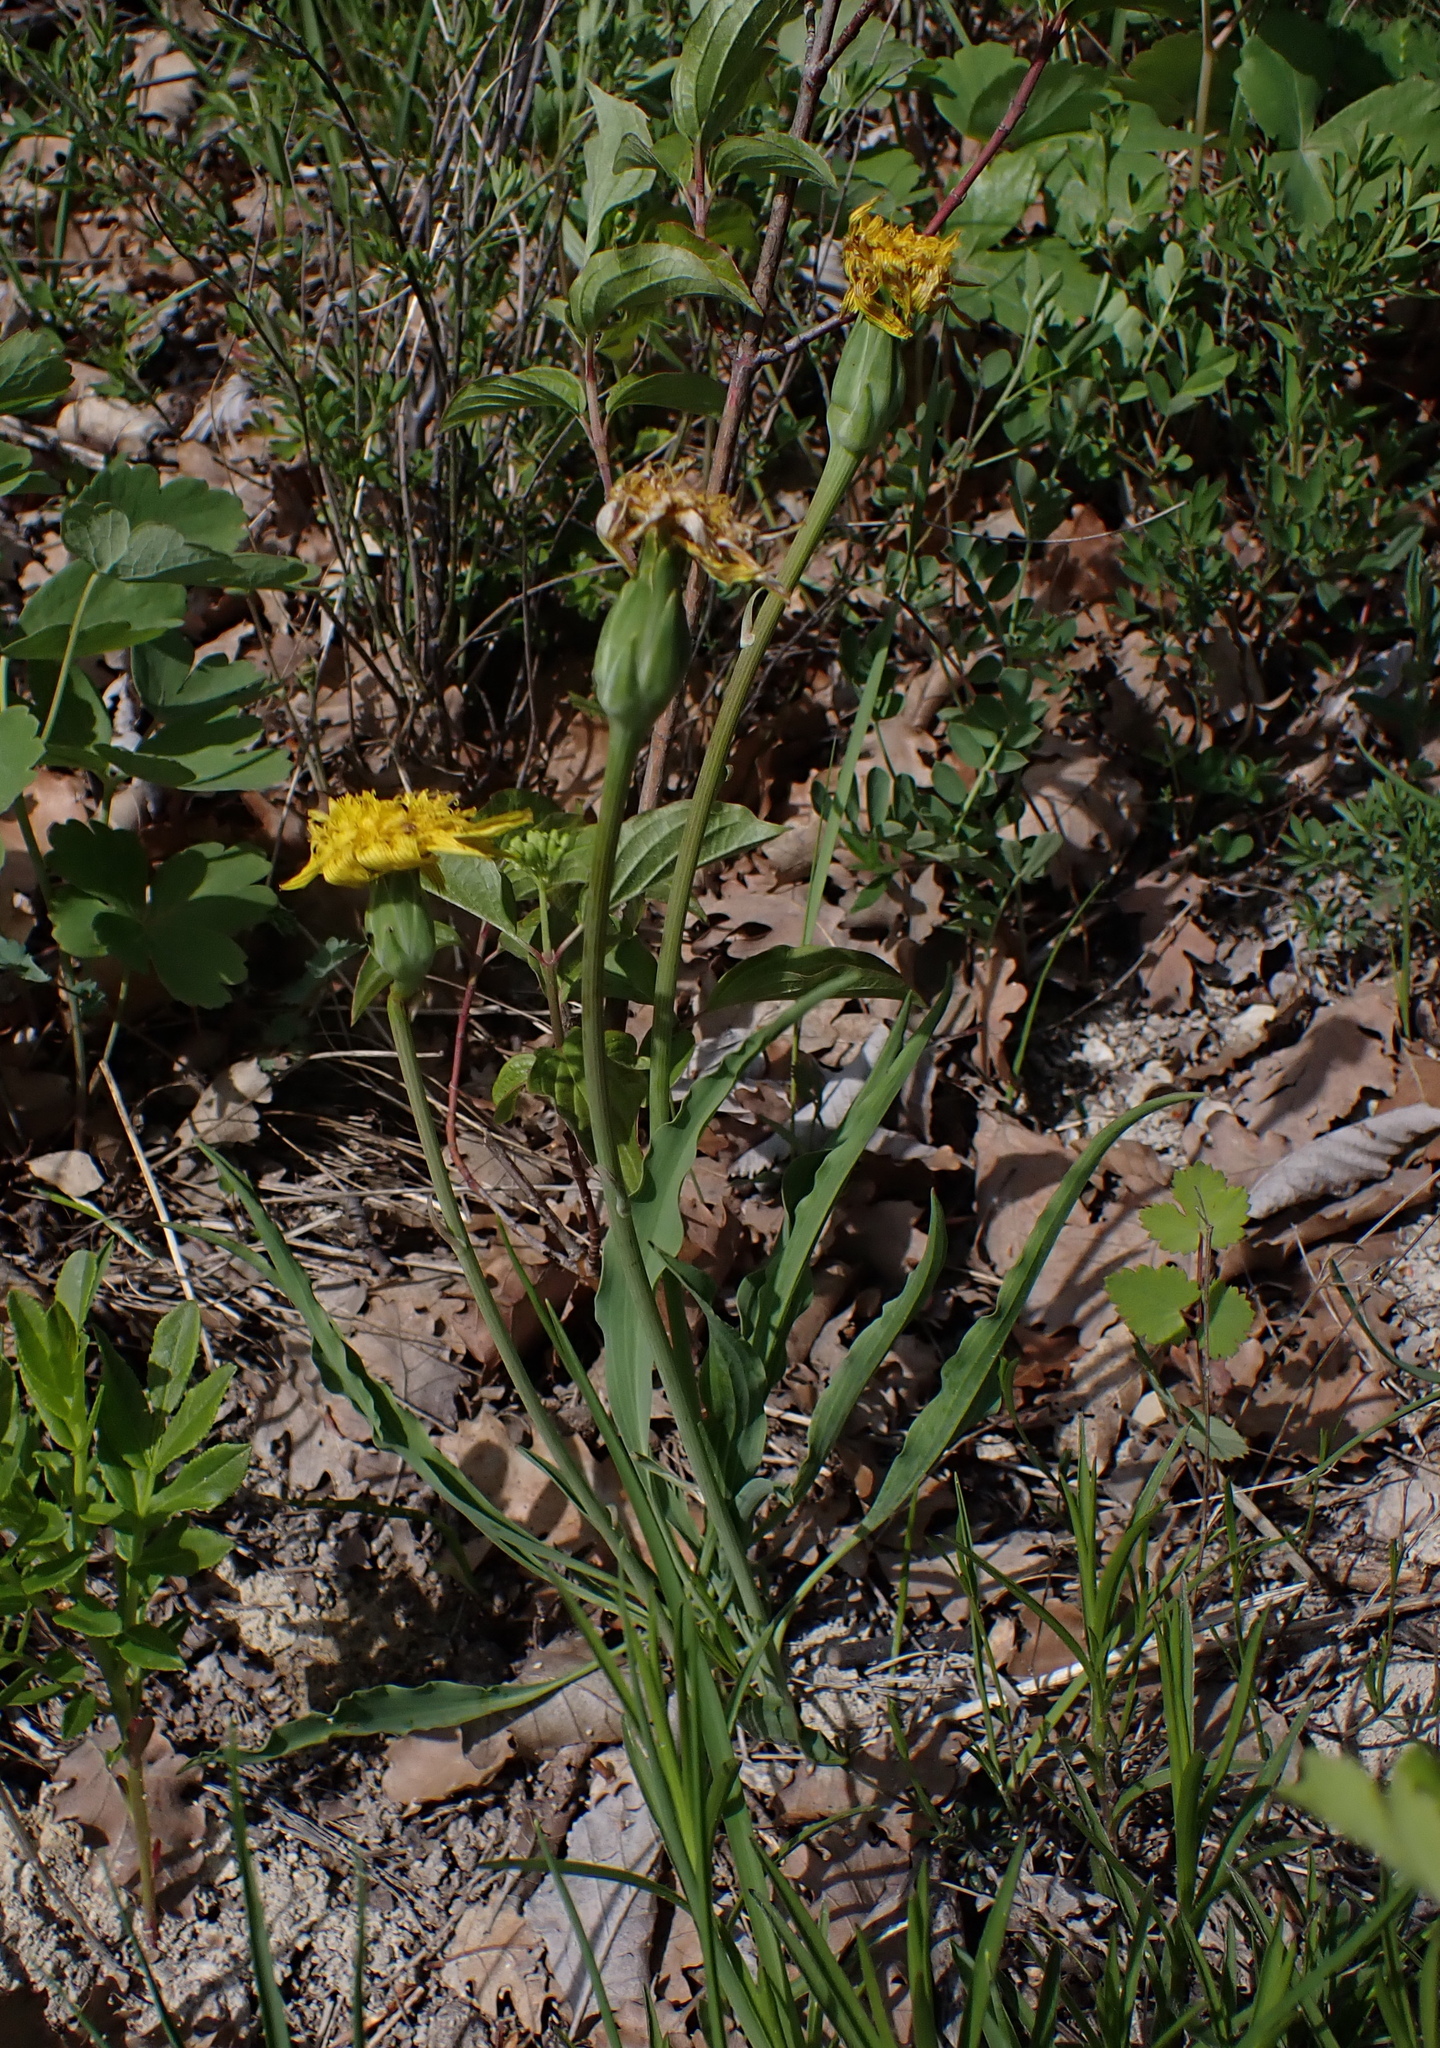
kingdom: Plantae
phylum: Tracheophyta
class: Magnoliopsida
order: Asterales
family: Asteraceae
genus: Takhtajaniantha
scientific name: Takhtajaniantha austriaca
